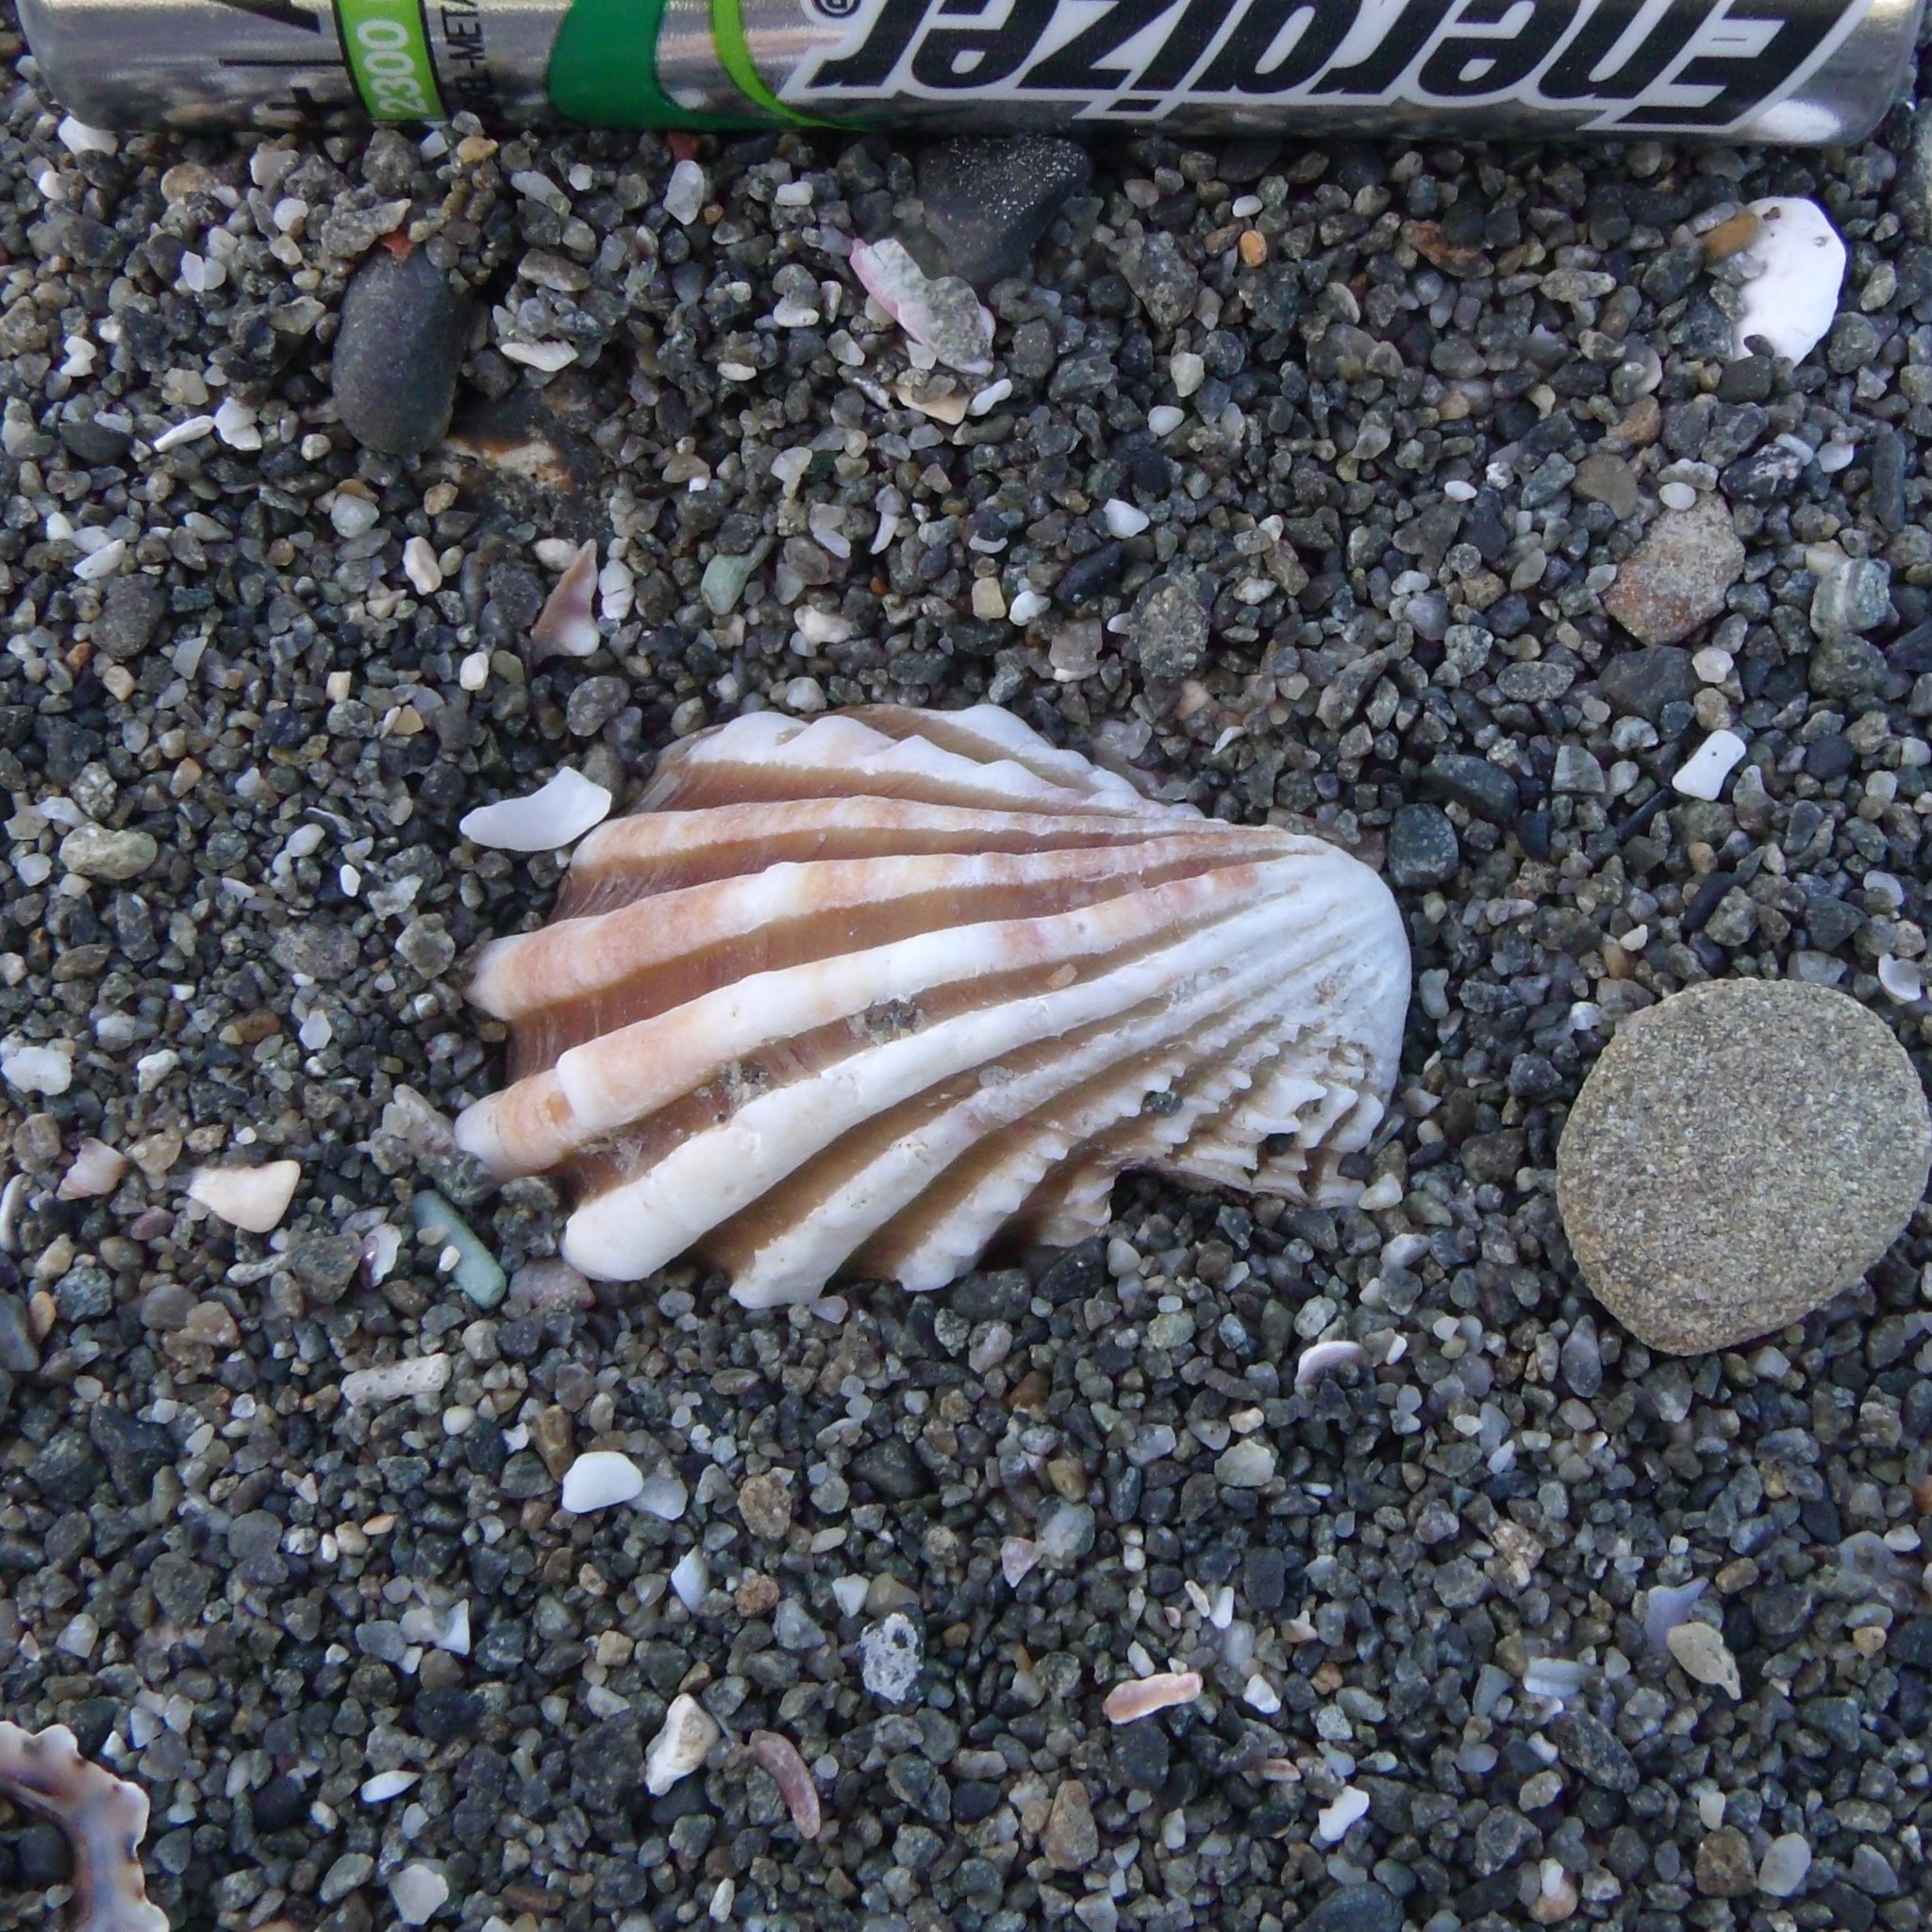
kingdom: Animalia
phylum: Mollusca
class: Bivalvia
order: Carditida
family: Carditidae
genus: Cardita
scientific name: Cardita distorta
